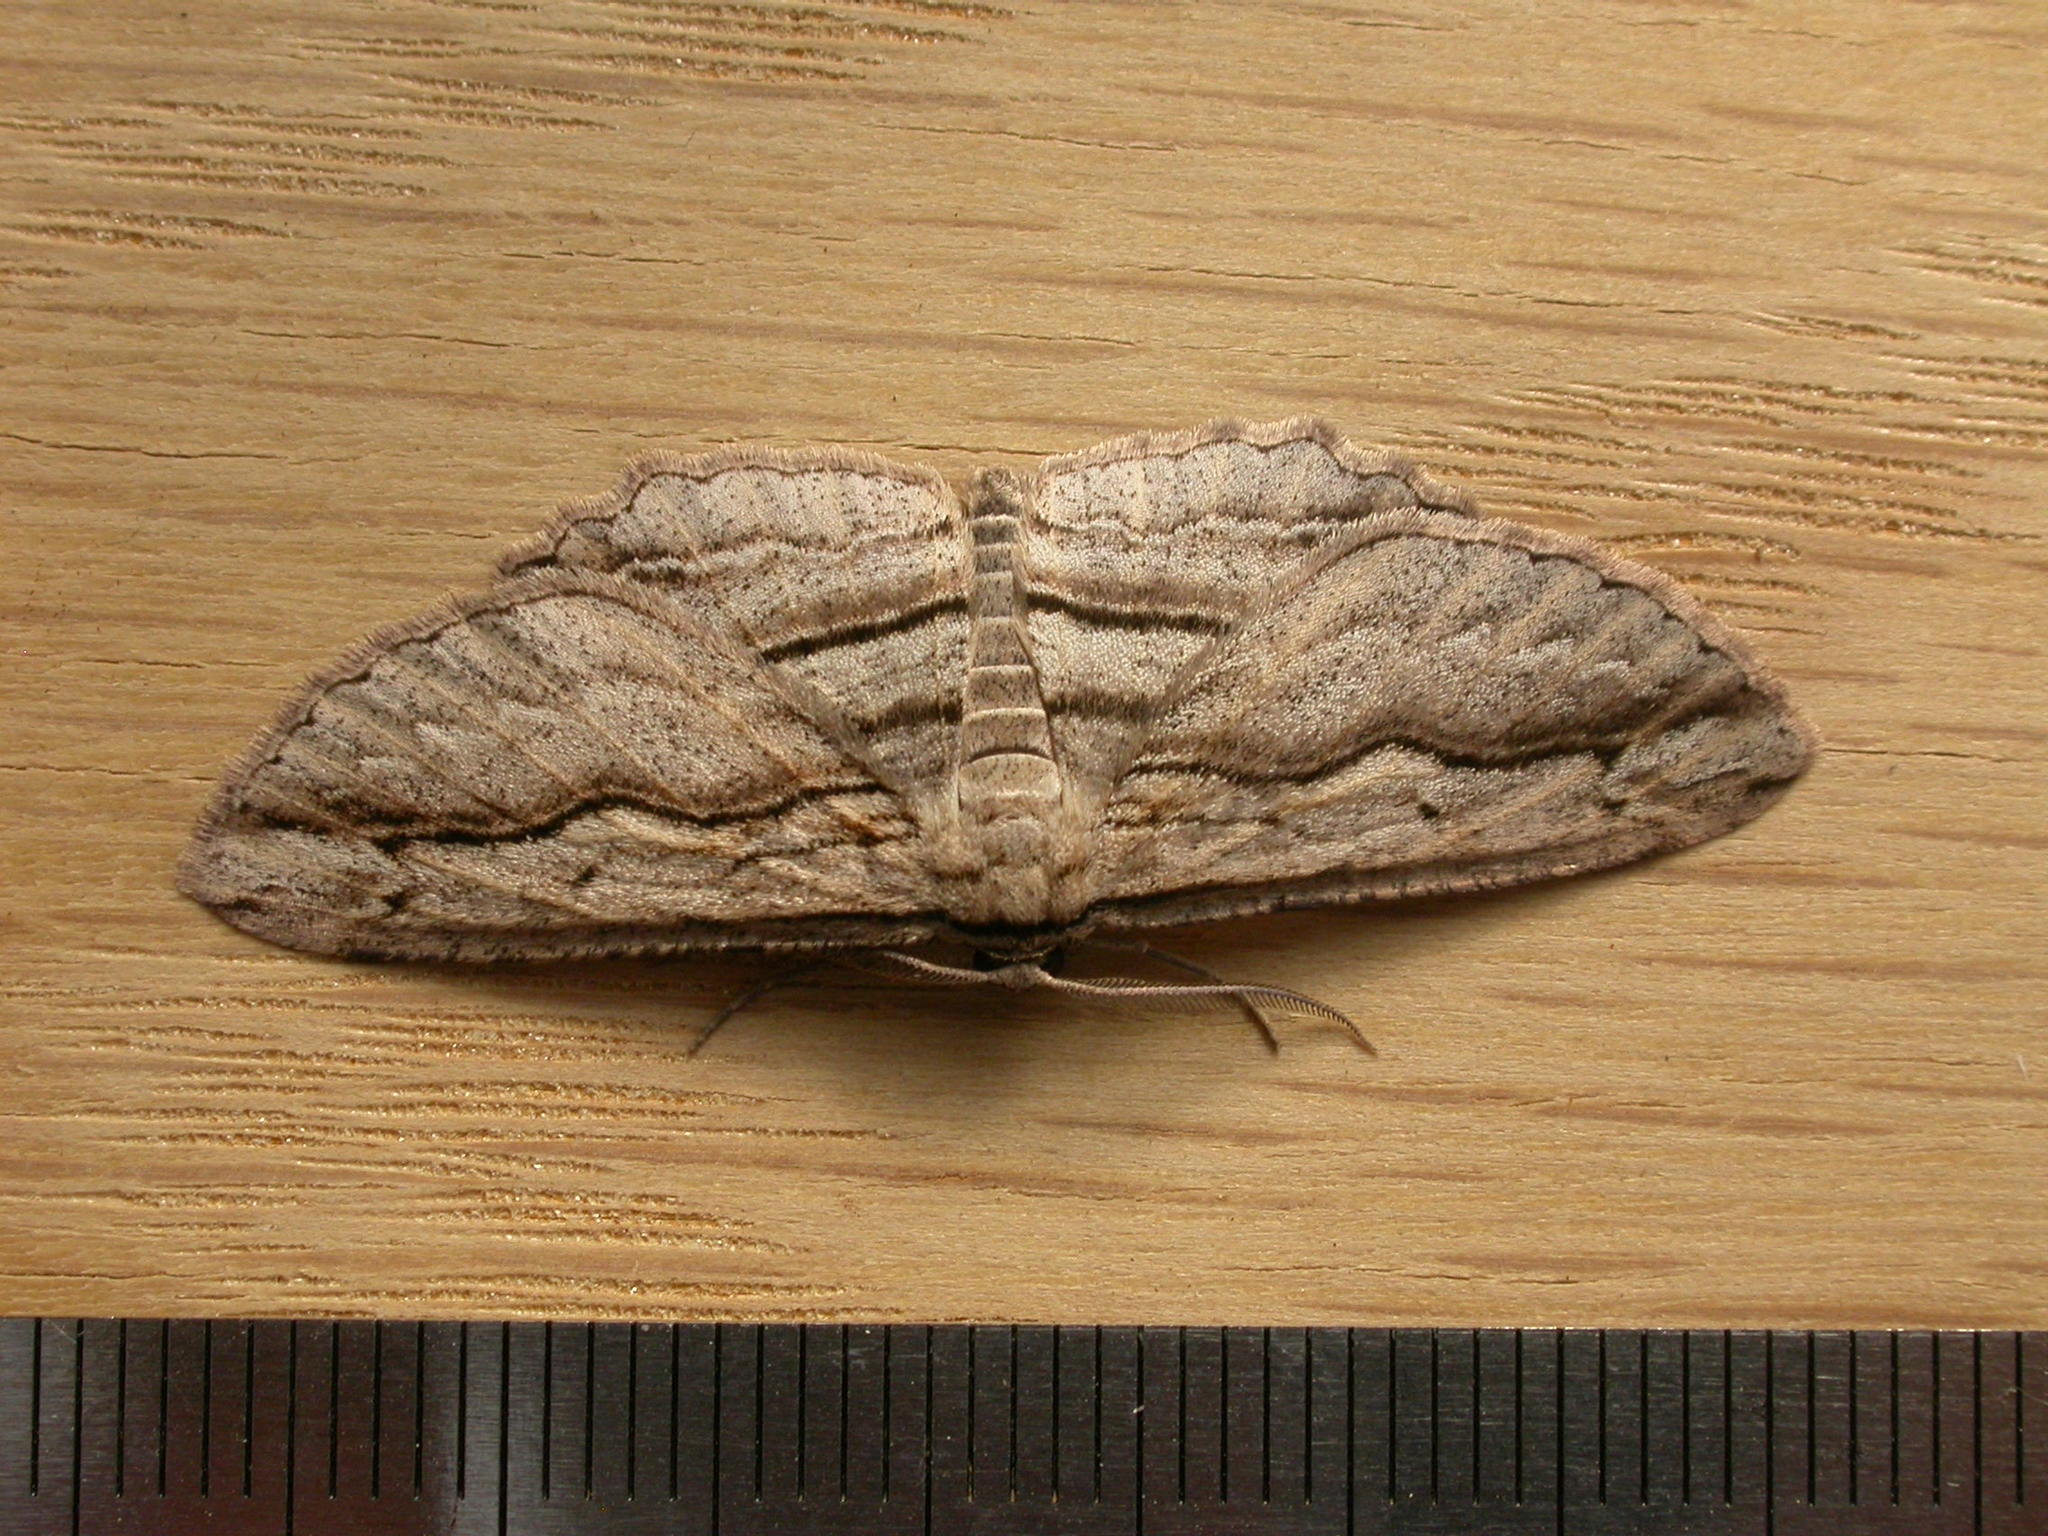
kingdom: Animalia
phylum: Arthropoda
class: Insecta
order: Lepidoptera
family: Geometridae
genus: Euphronarcha
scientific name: Euphronarcha luxaria
